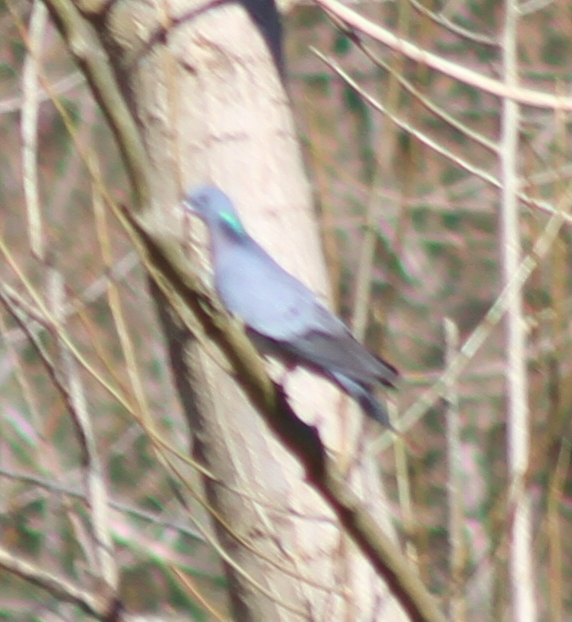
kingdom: Animalia
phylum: Chordata
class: Aves
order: Columbiformes
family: Columbidae
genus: Columba
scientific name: Columba oenas
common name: Stock dove
